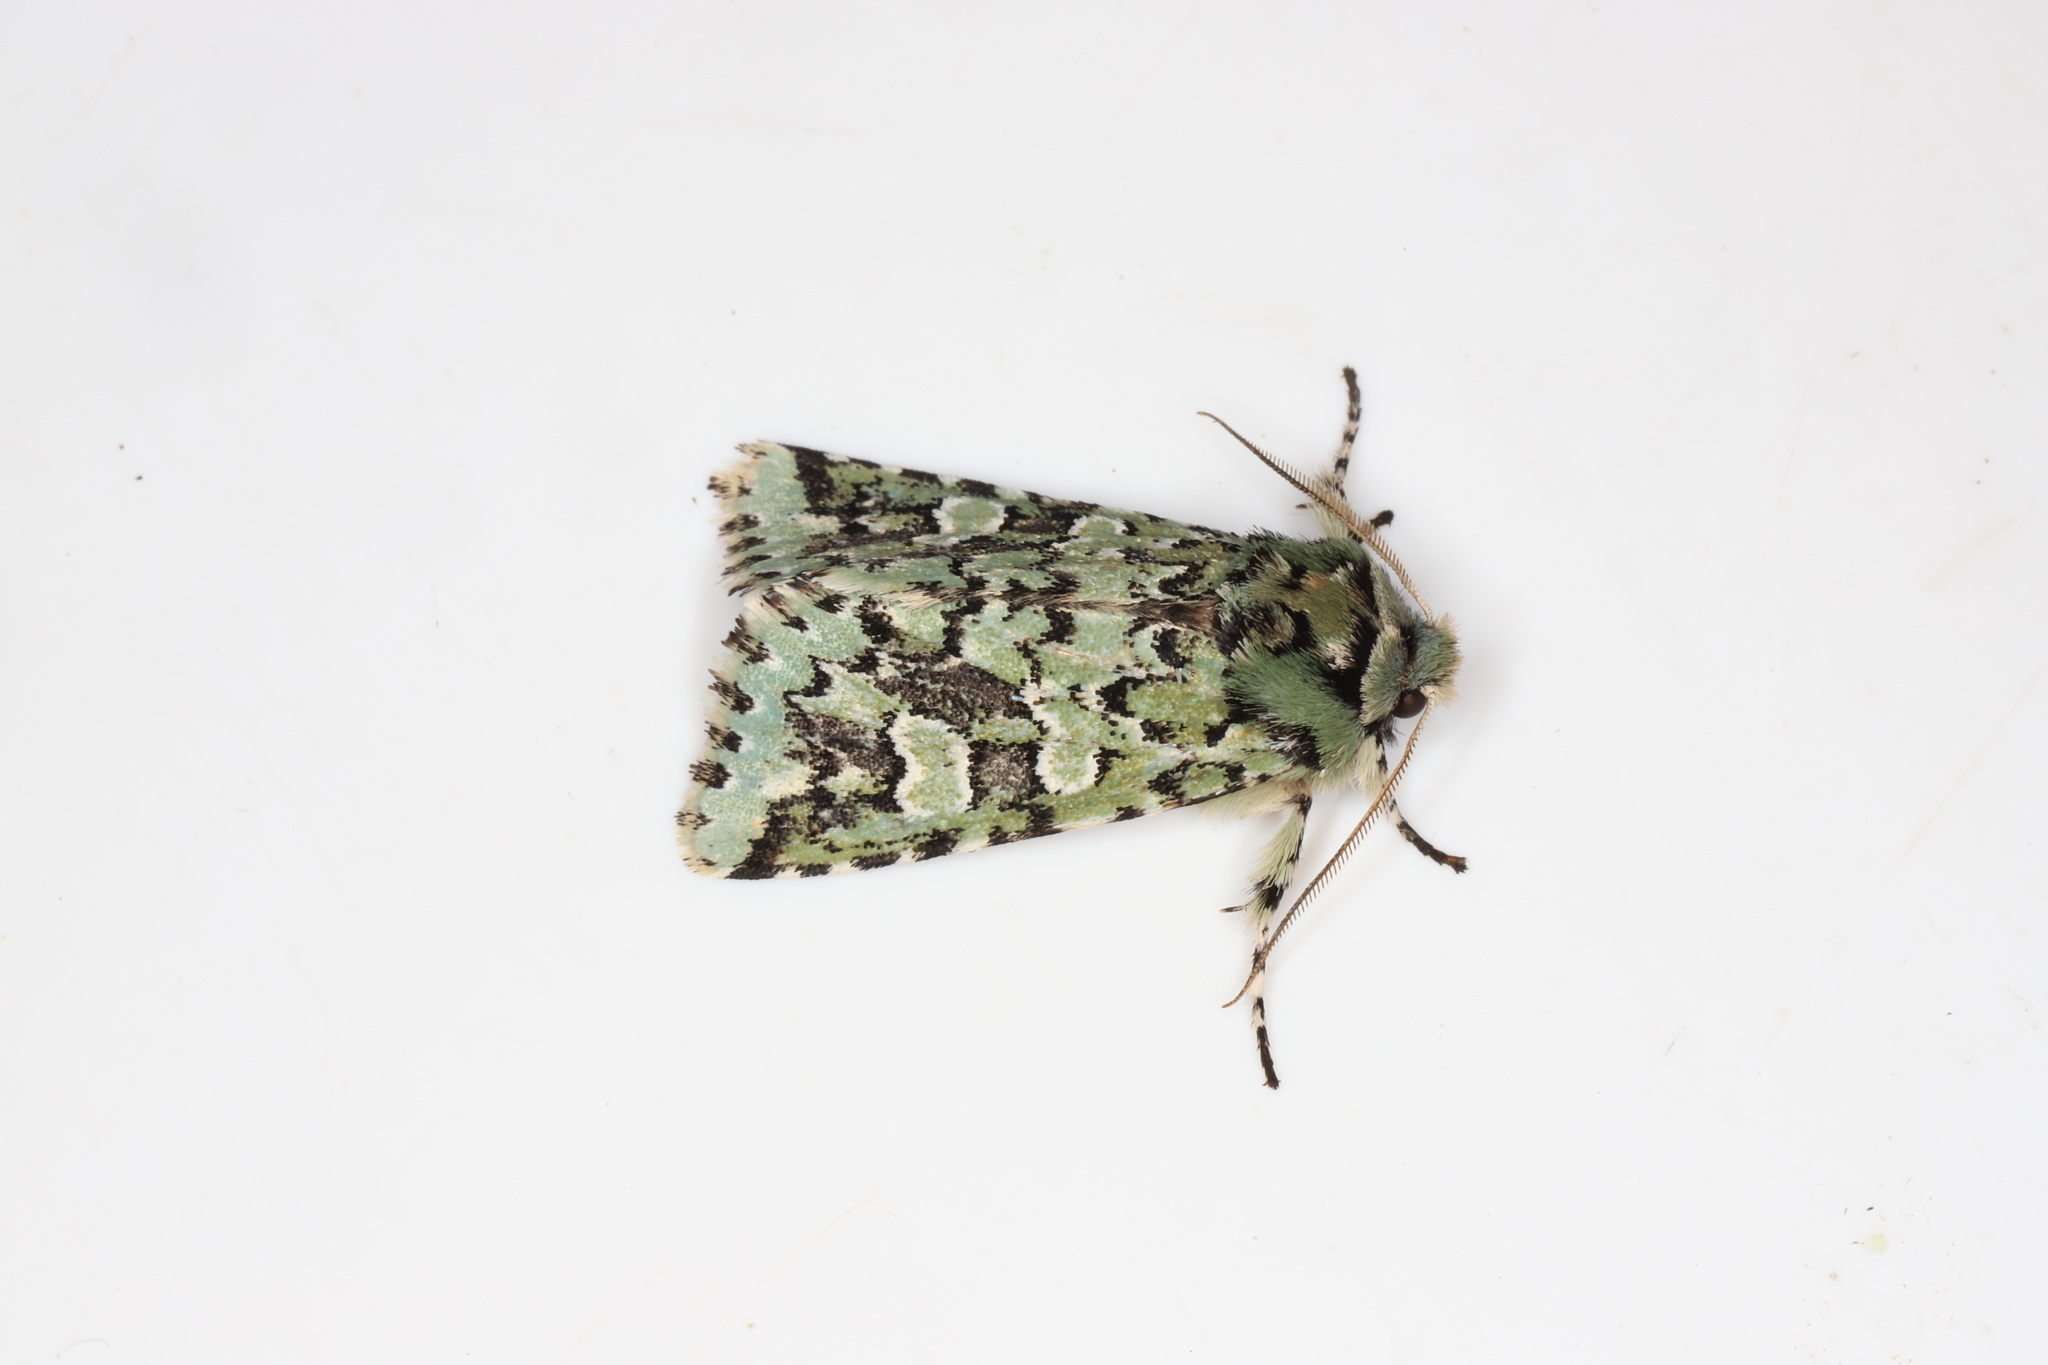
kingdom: Animalia
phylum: Arthropoda
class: Insecta
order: Lepidoptera
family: Noctuidae
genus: Feralia
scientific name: Feralia comstocki
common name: Comstock's sallow
